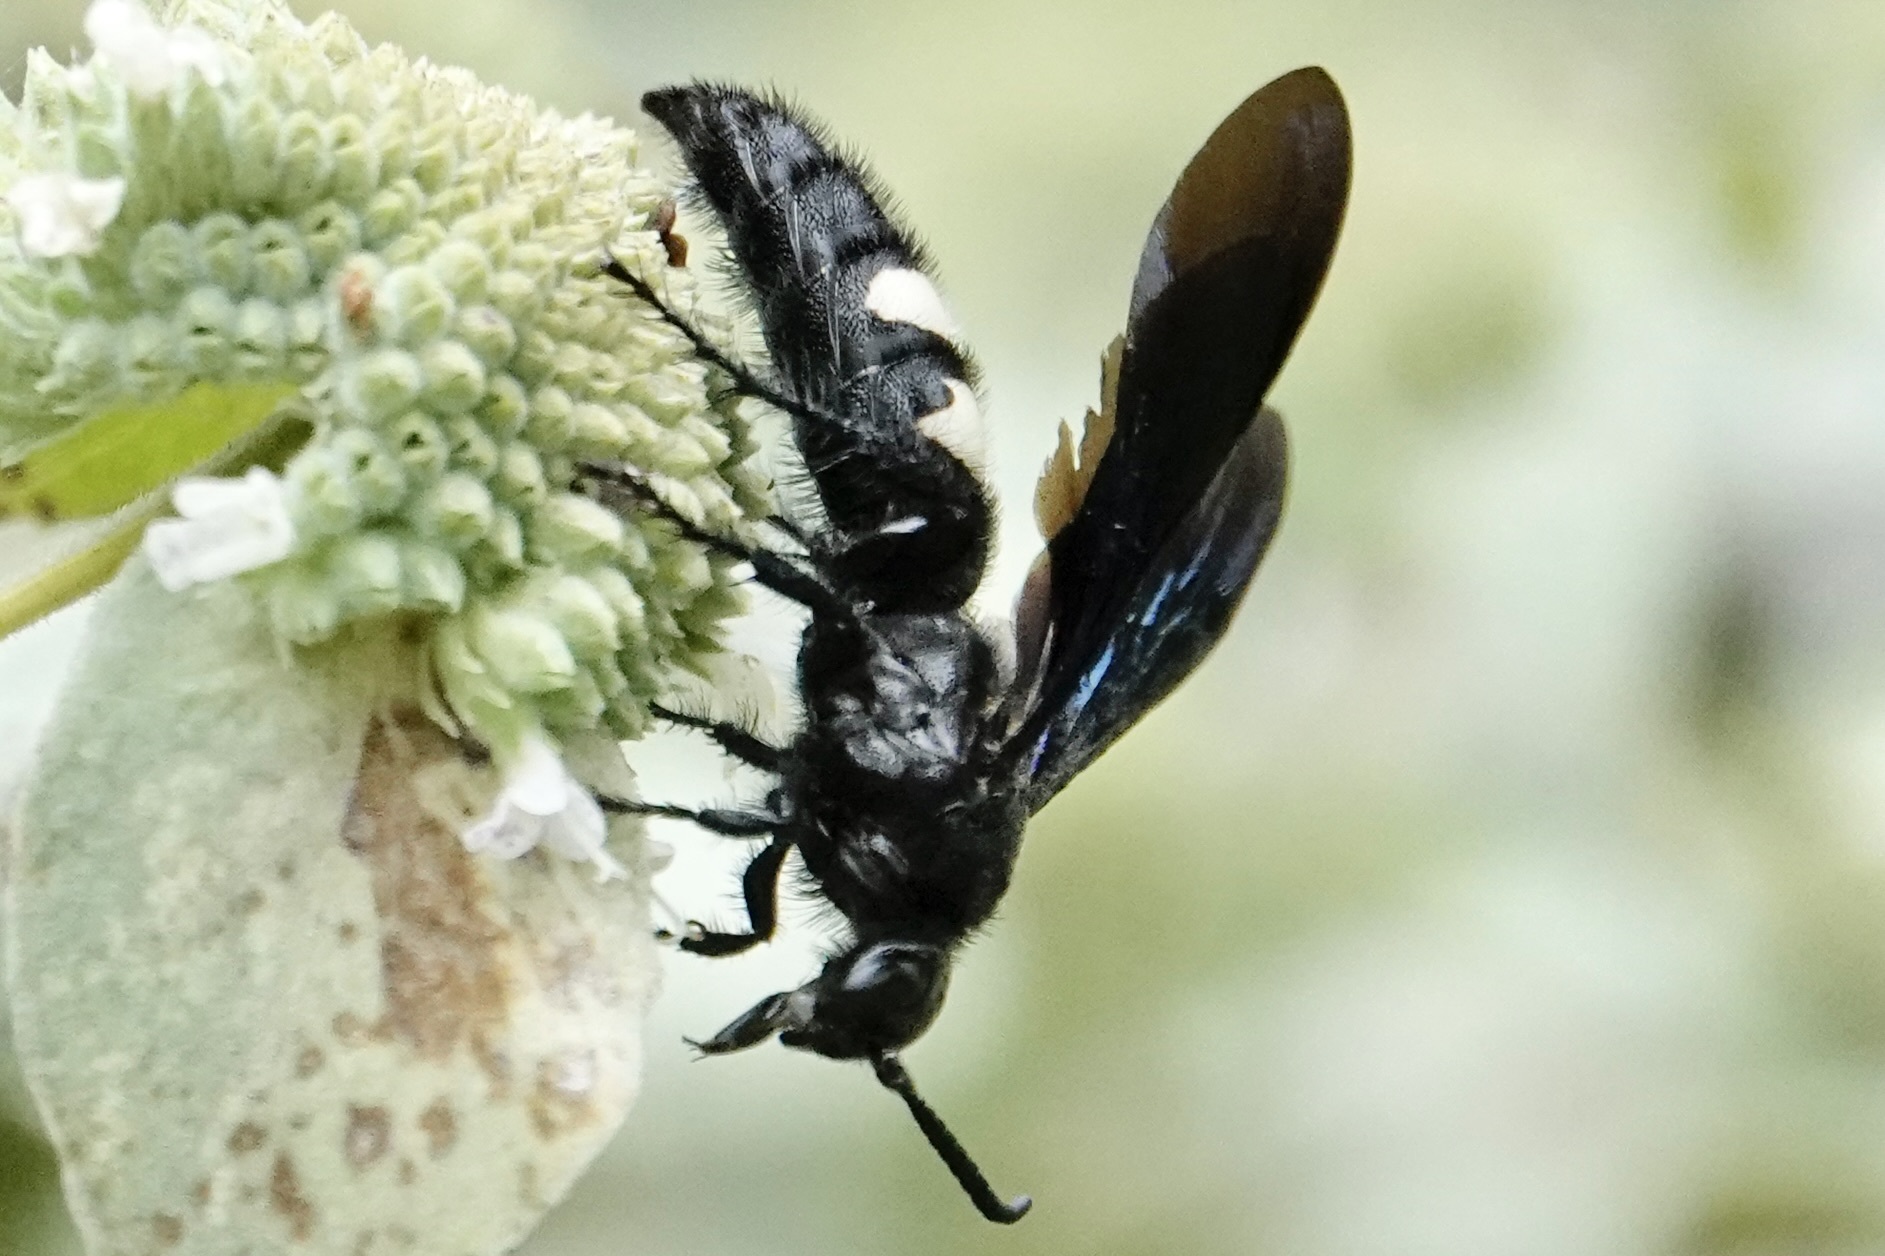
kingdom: Animalia
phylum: Arthropoda
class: Insecta
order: Hymenoptera
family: Scoliidae
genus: Scolia
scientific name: Scolia bicincta
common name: Double-banded scoliid wasp
